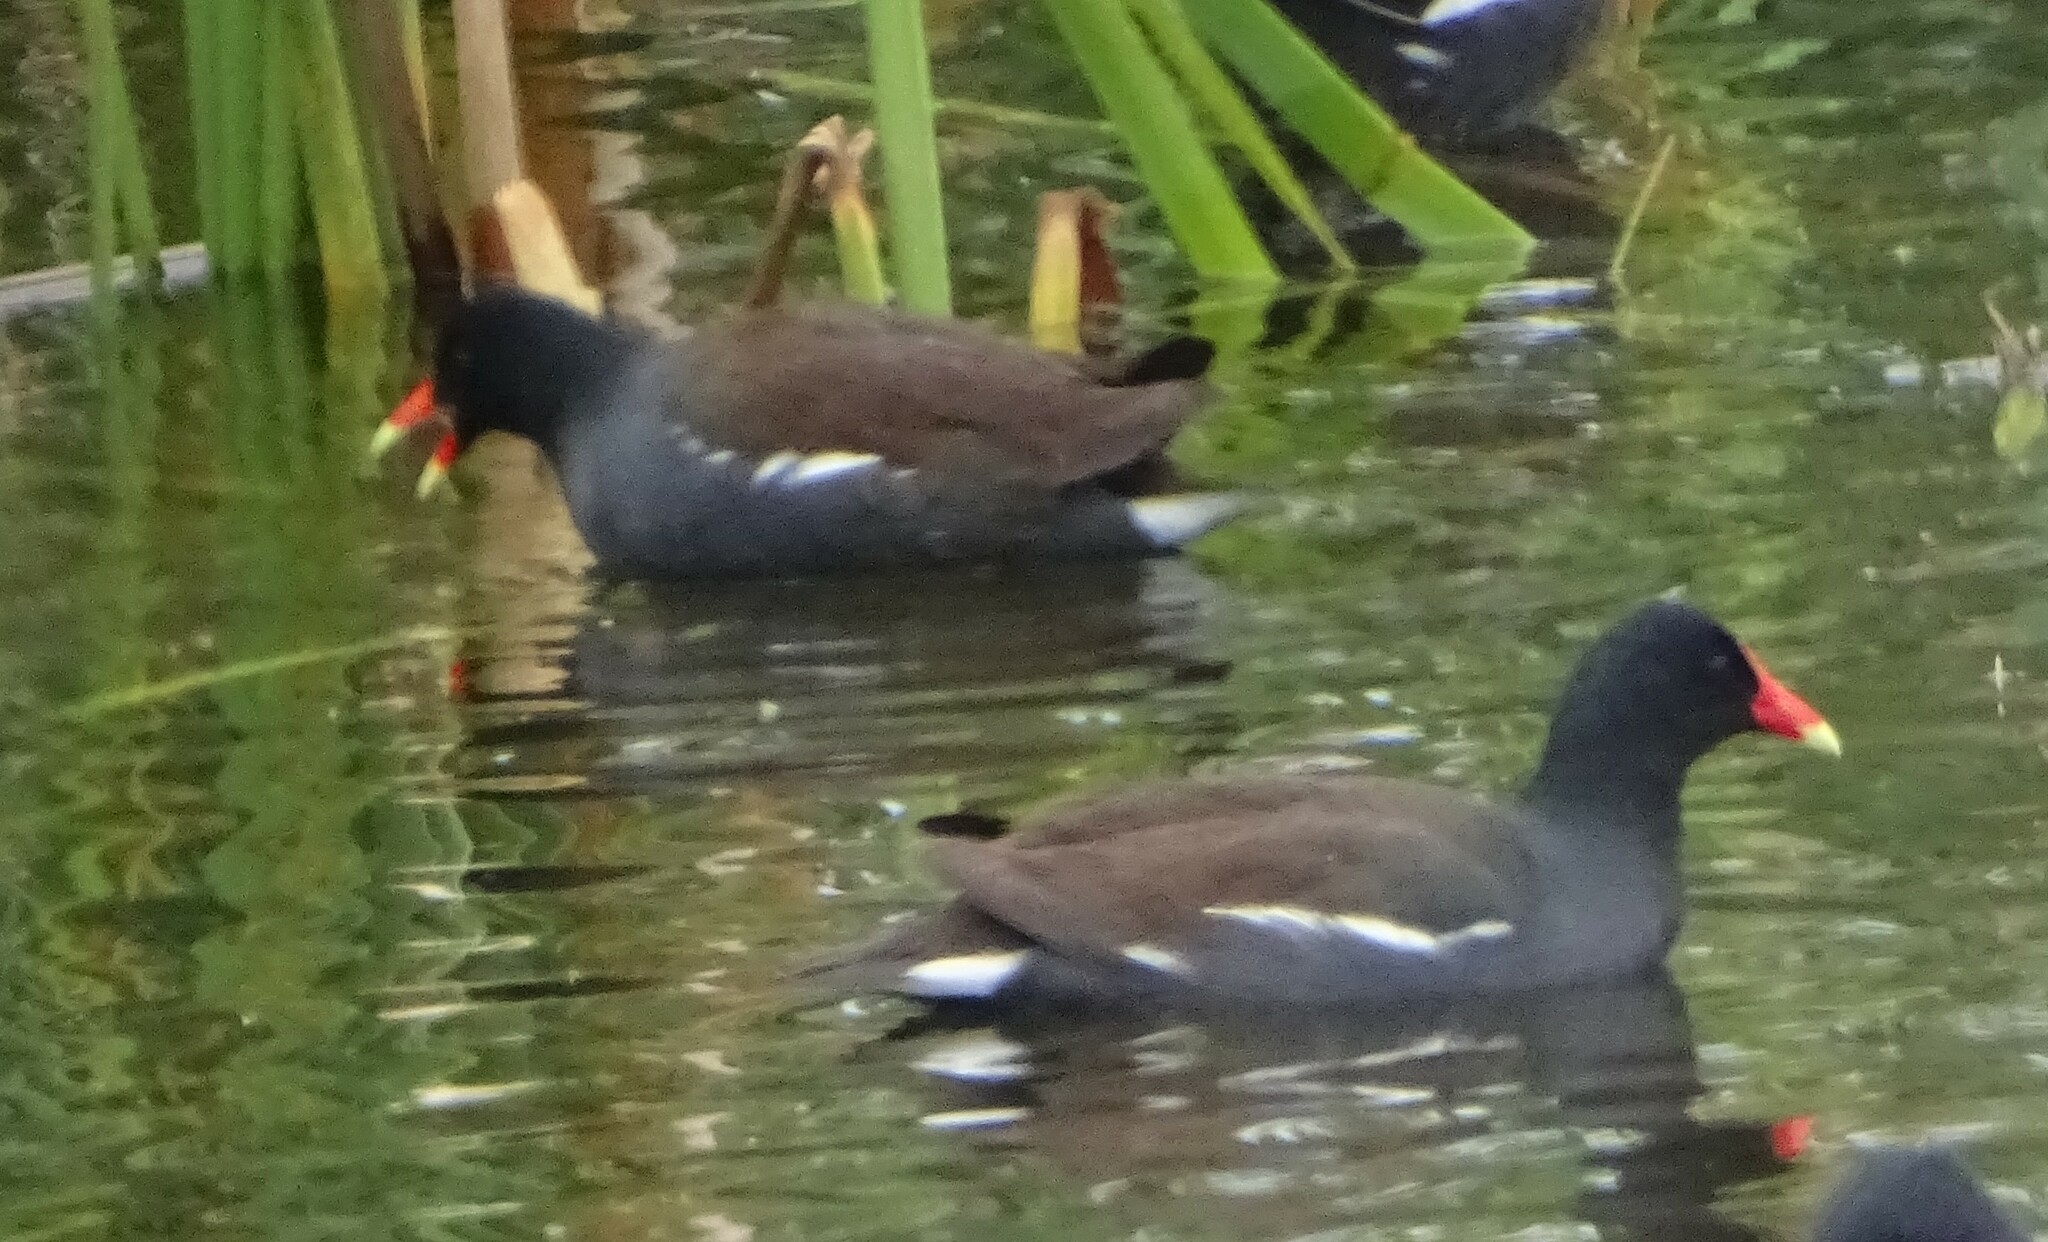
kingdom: Animalia
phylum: Chordata
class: Aves
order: Gruiformes
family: Rallidae
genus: Gallinula
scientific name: Gallinula chloropus
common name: Common moorhen
